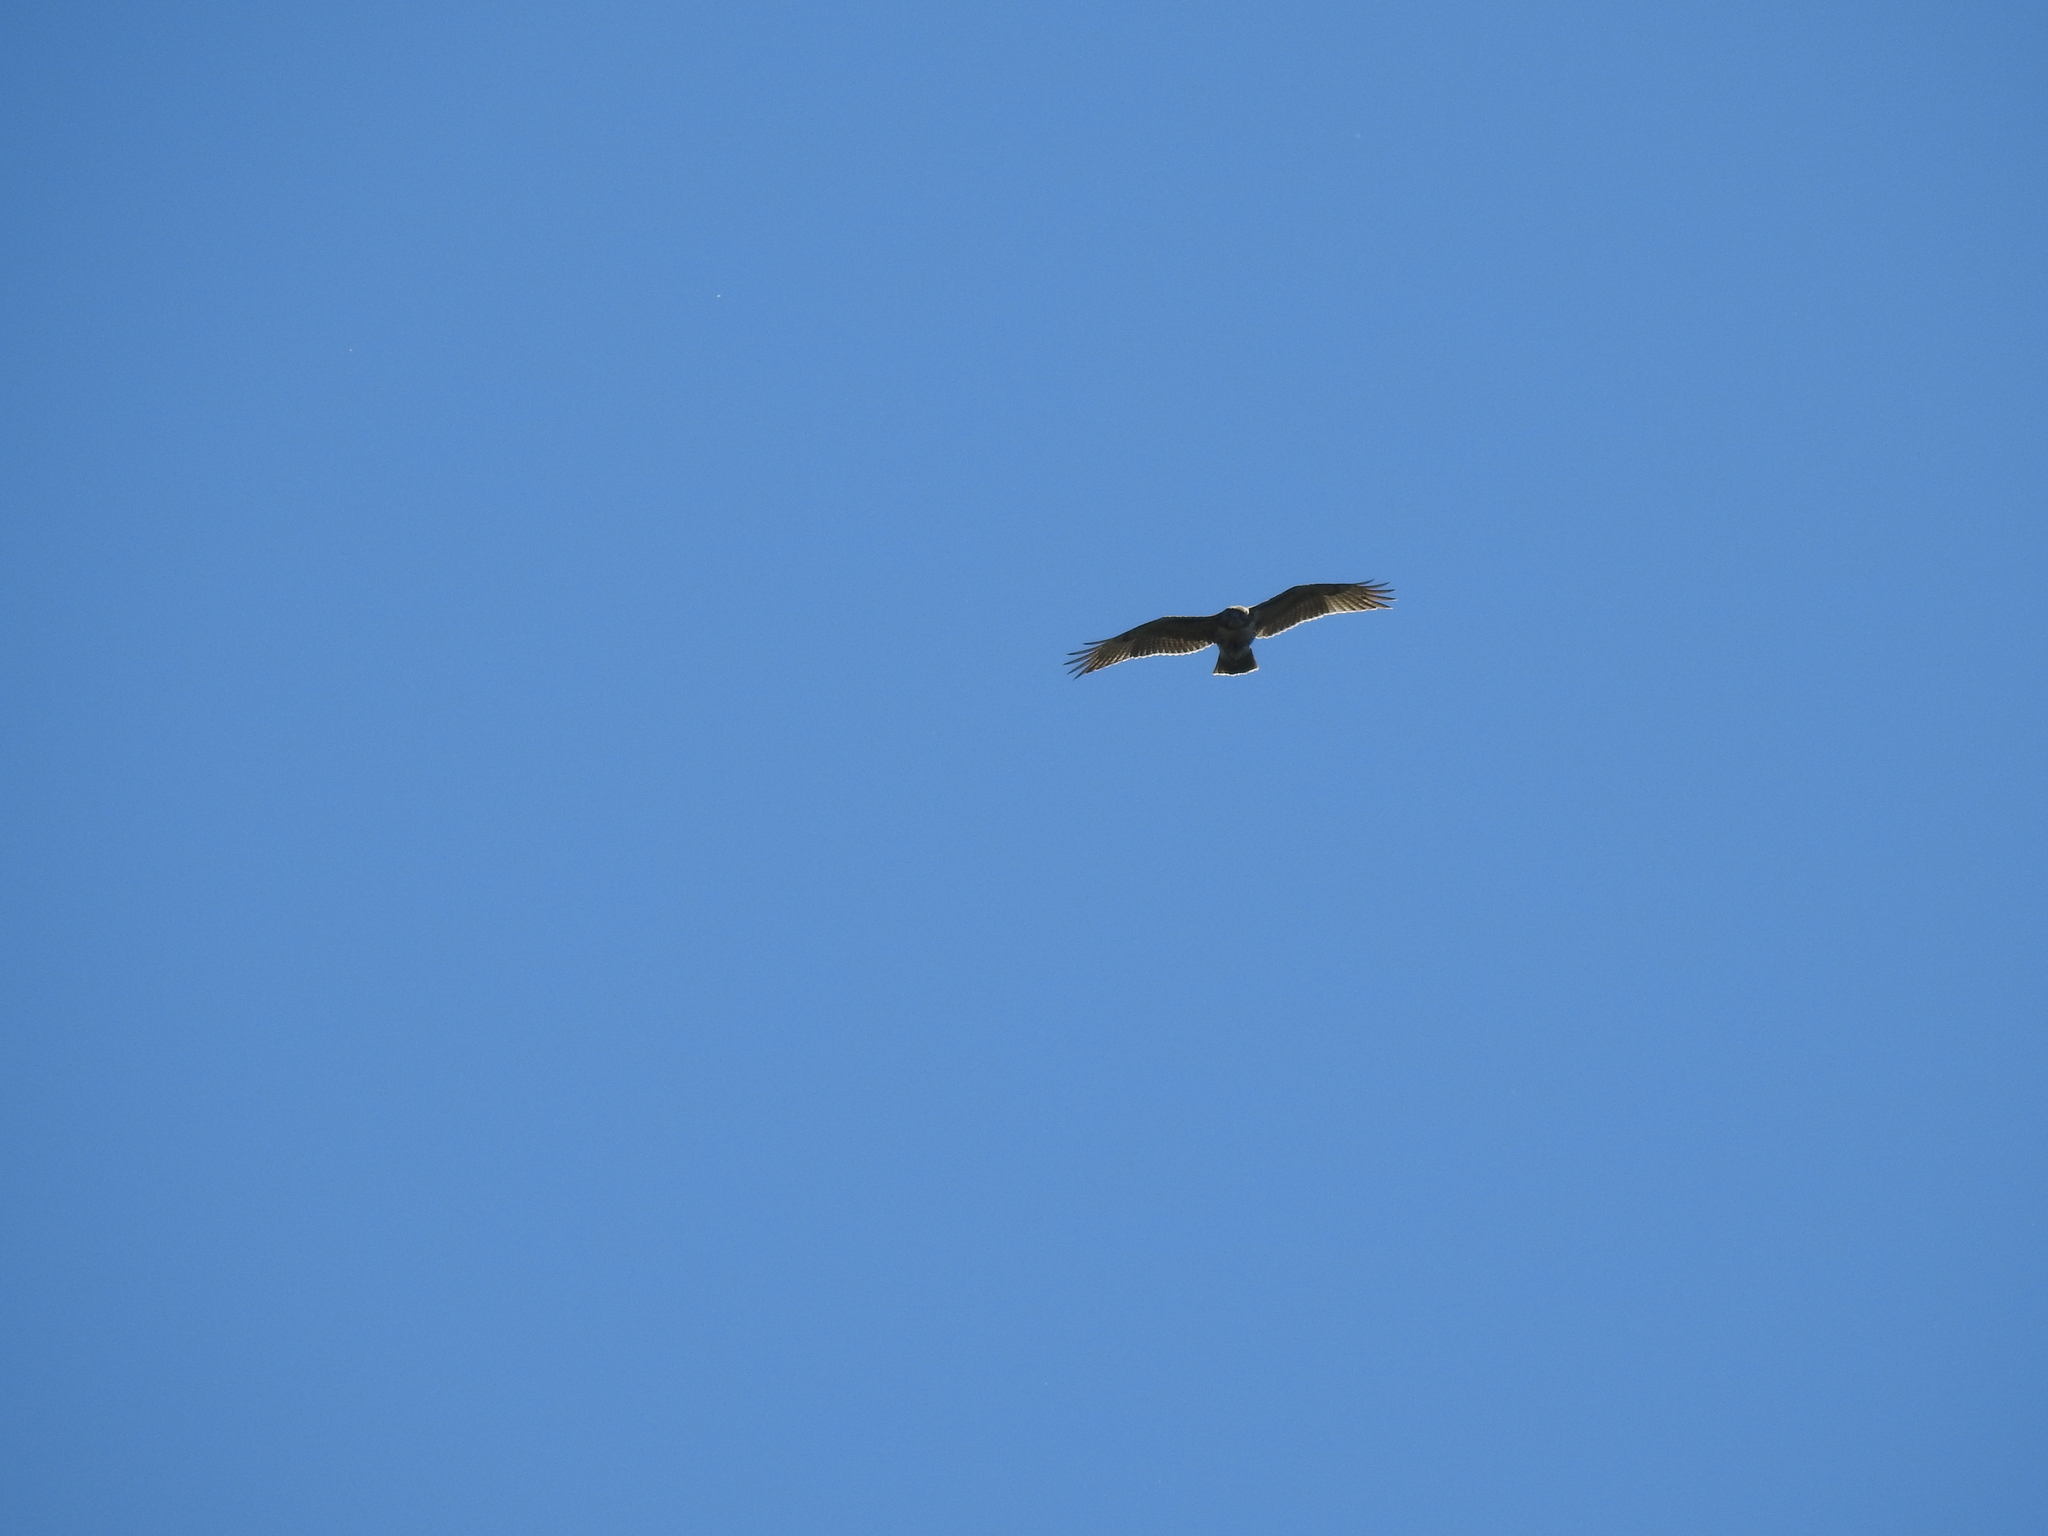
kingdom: Animalia
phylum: Chordata
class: Aves
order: Accipitriformes
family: Accipitridae
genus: Buteo
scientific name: Buteo jamaicensis
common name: Red-tailed hawk
